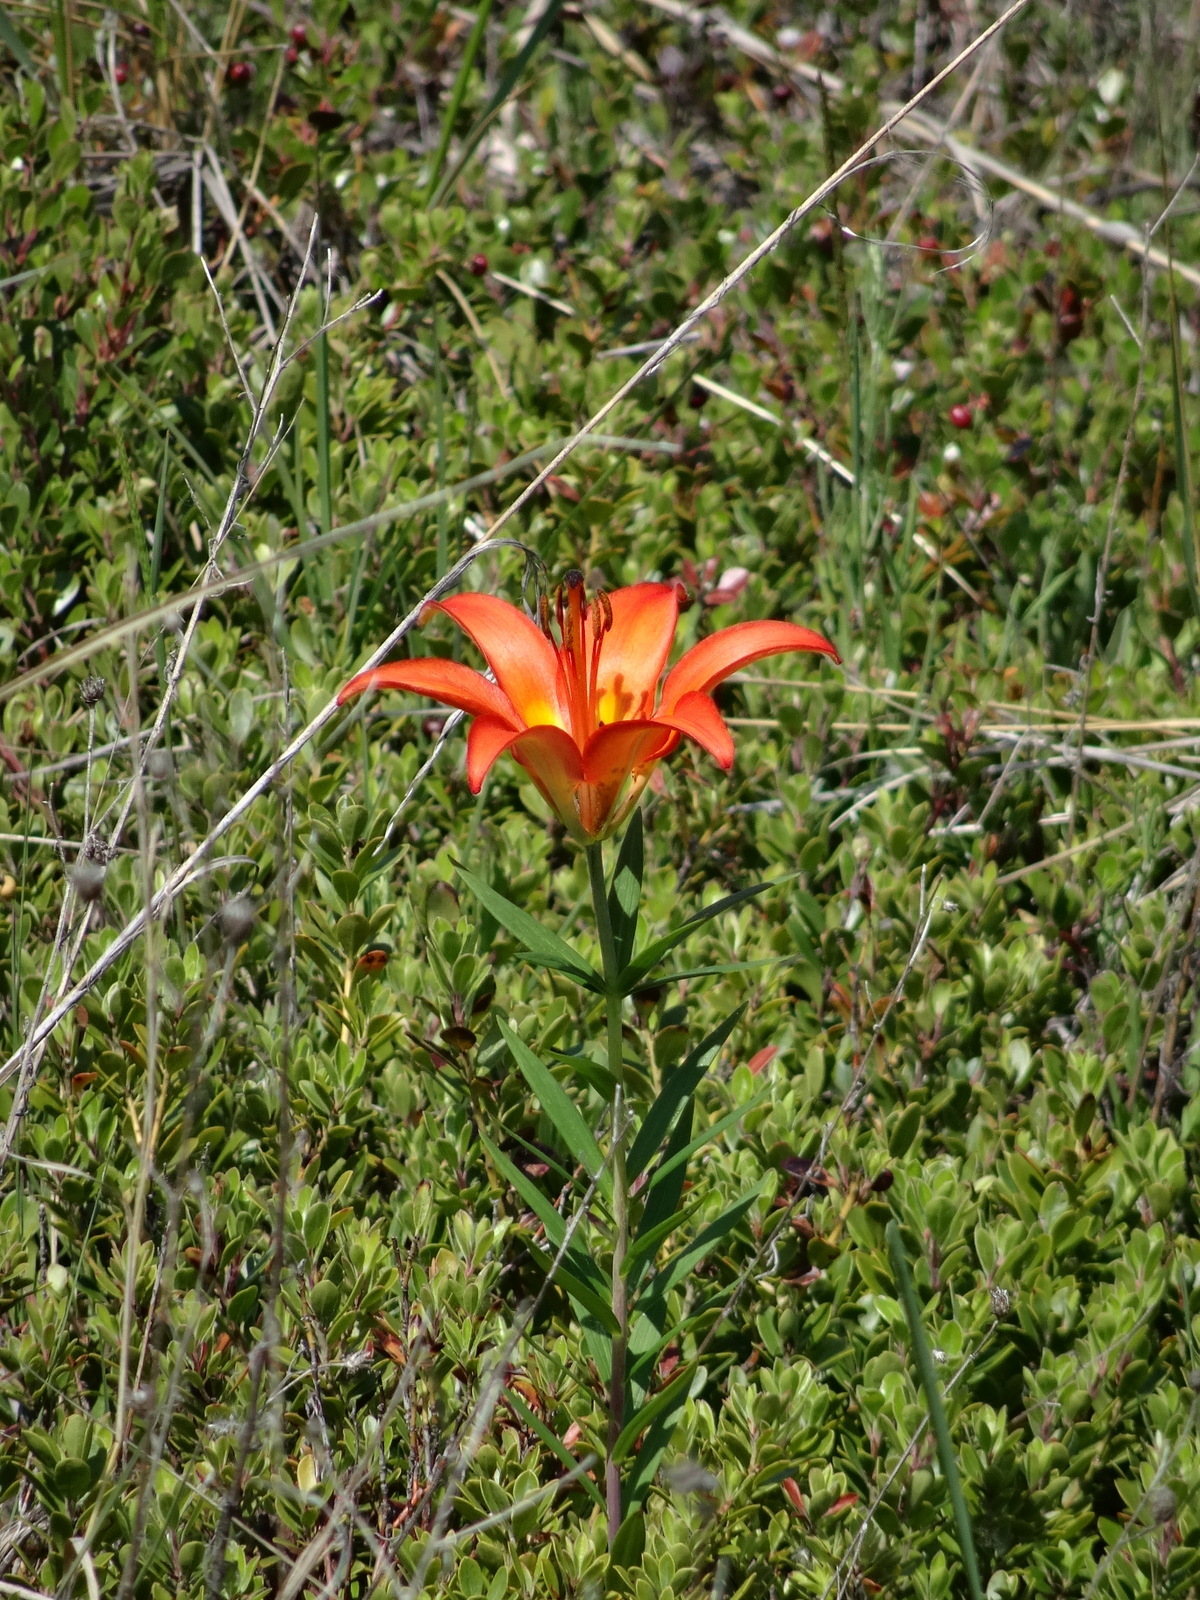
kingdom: Plantae
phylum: Tracheophyta
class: Liliopsida
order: Liliales
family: Liliaceae
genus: Lilium
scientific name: Lilium philadelphicum
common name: Red lily
